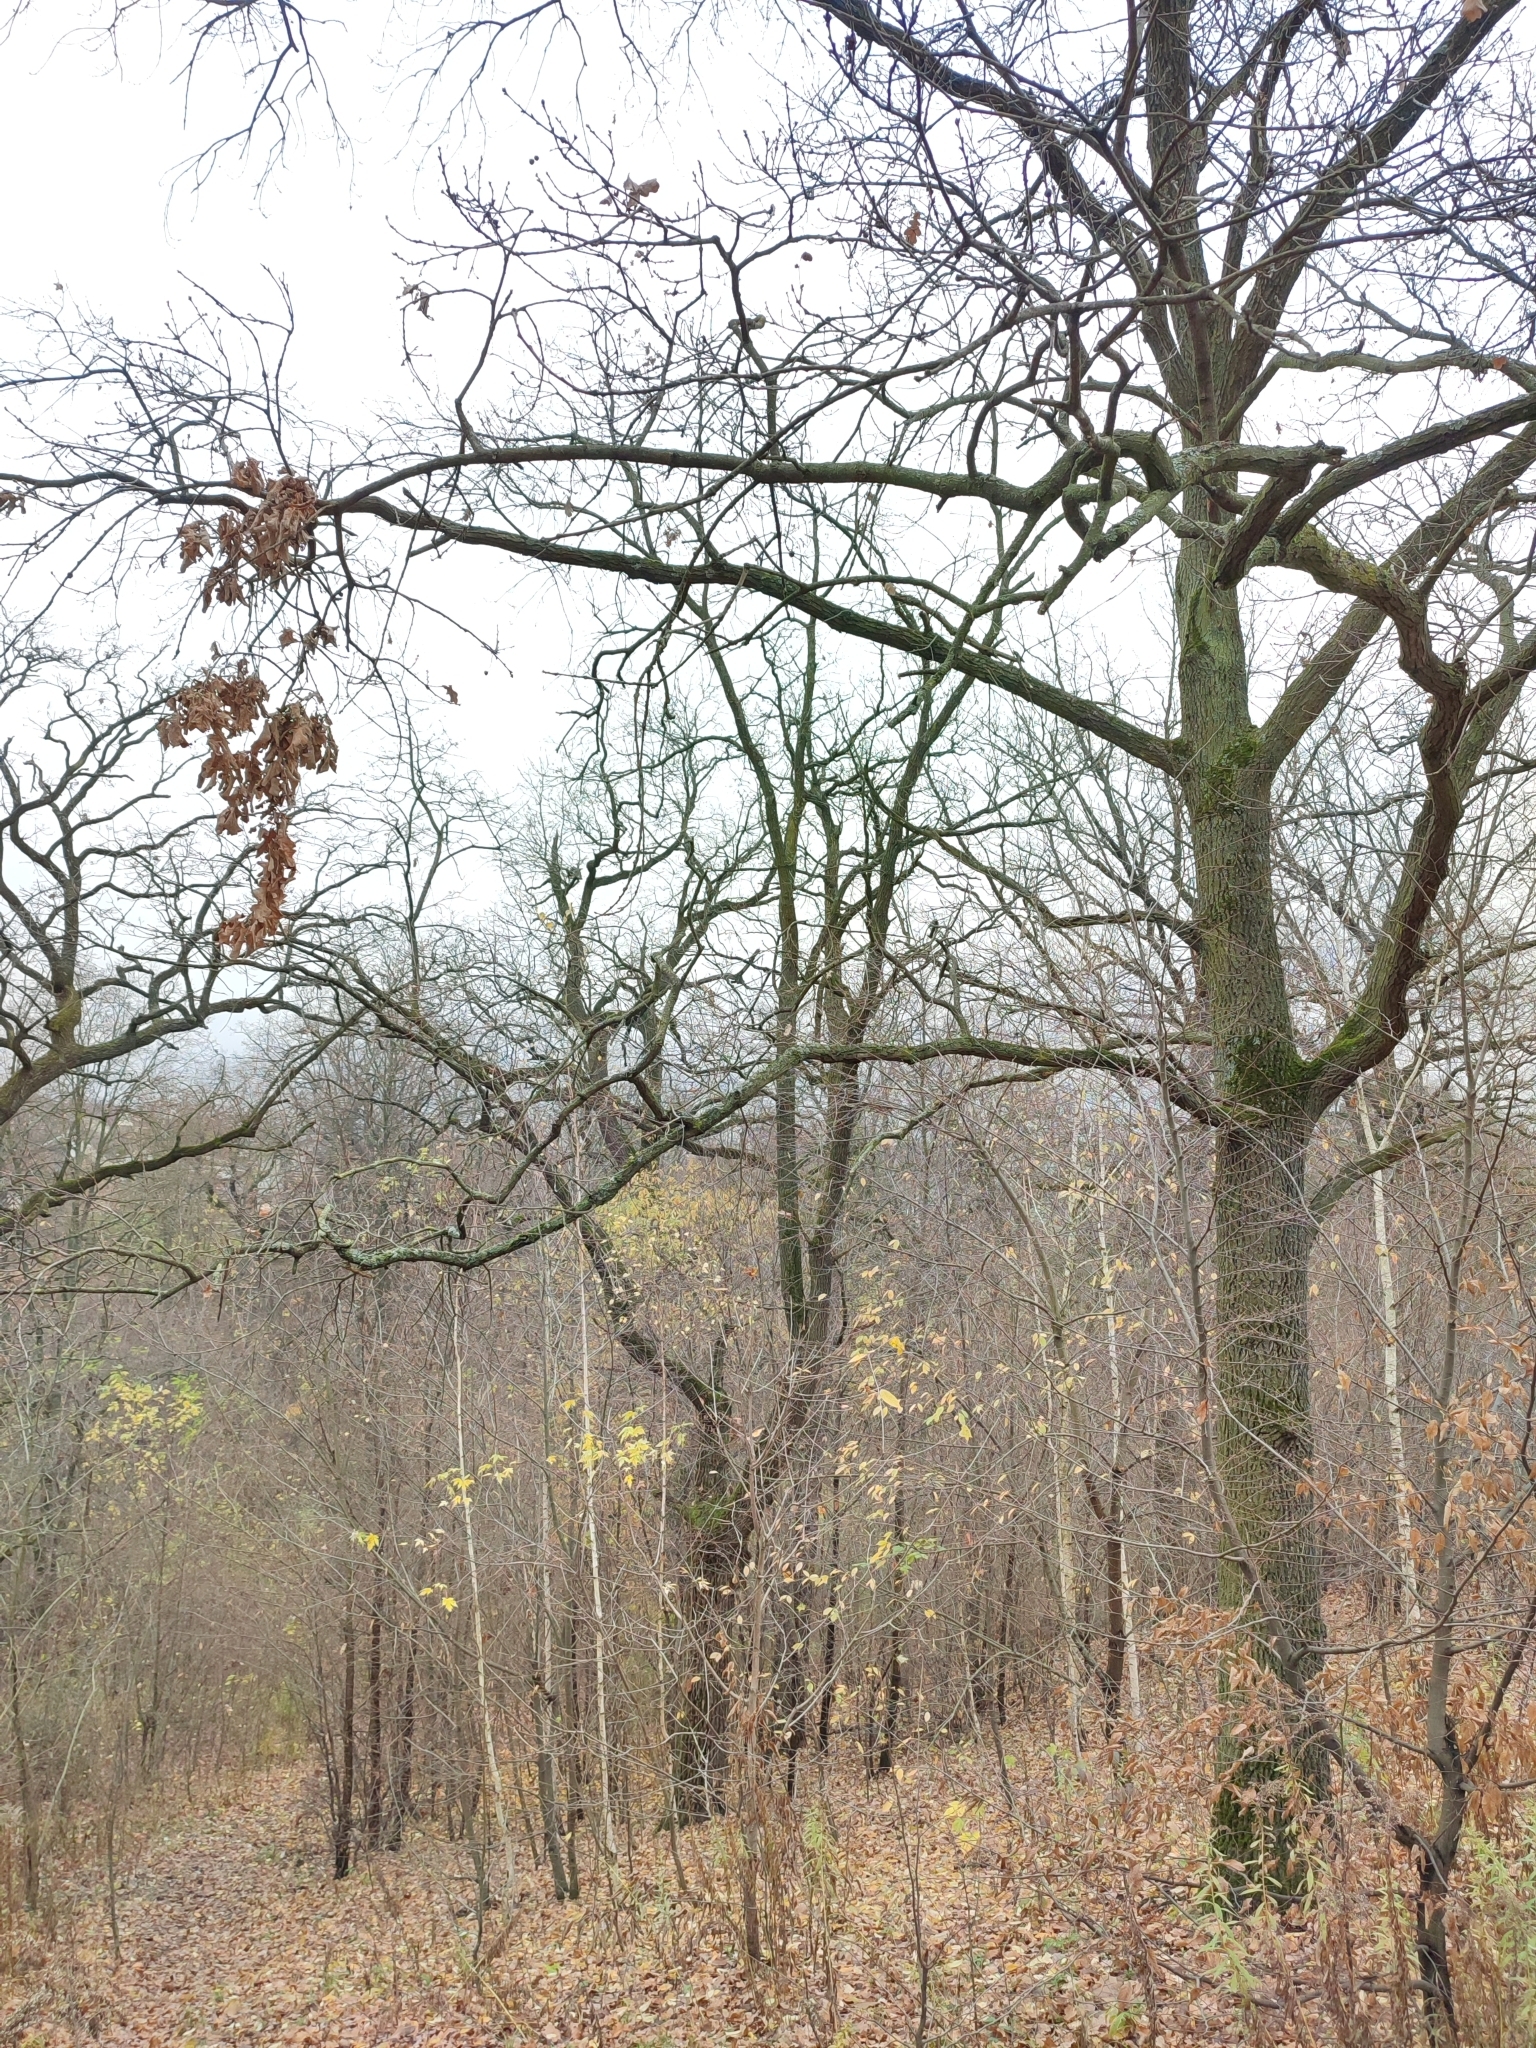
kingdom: Plantae
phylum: Tracheophyta
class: Magnoliopsida
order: Fagales
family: Fagaceae
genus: Quercus
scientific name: Quercus robur
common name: Pedunculate oak
